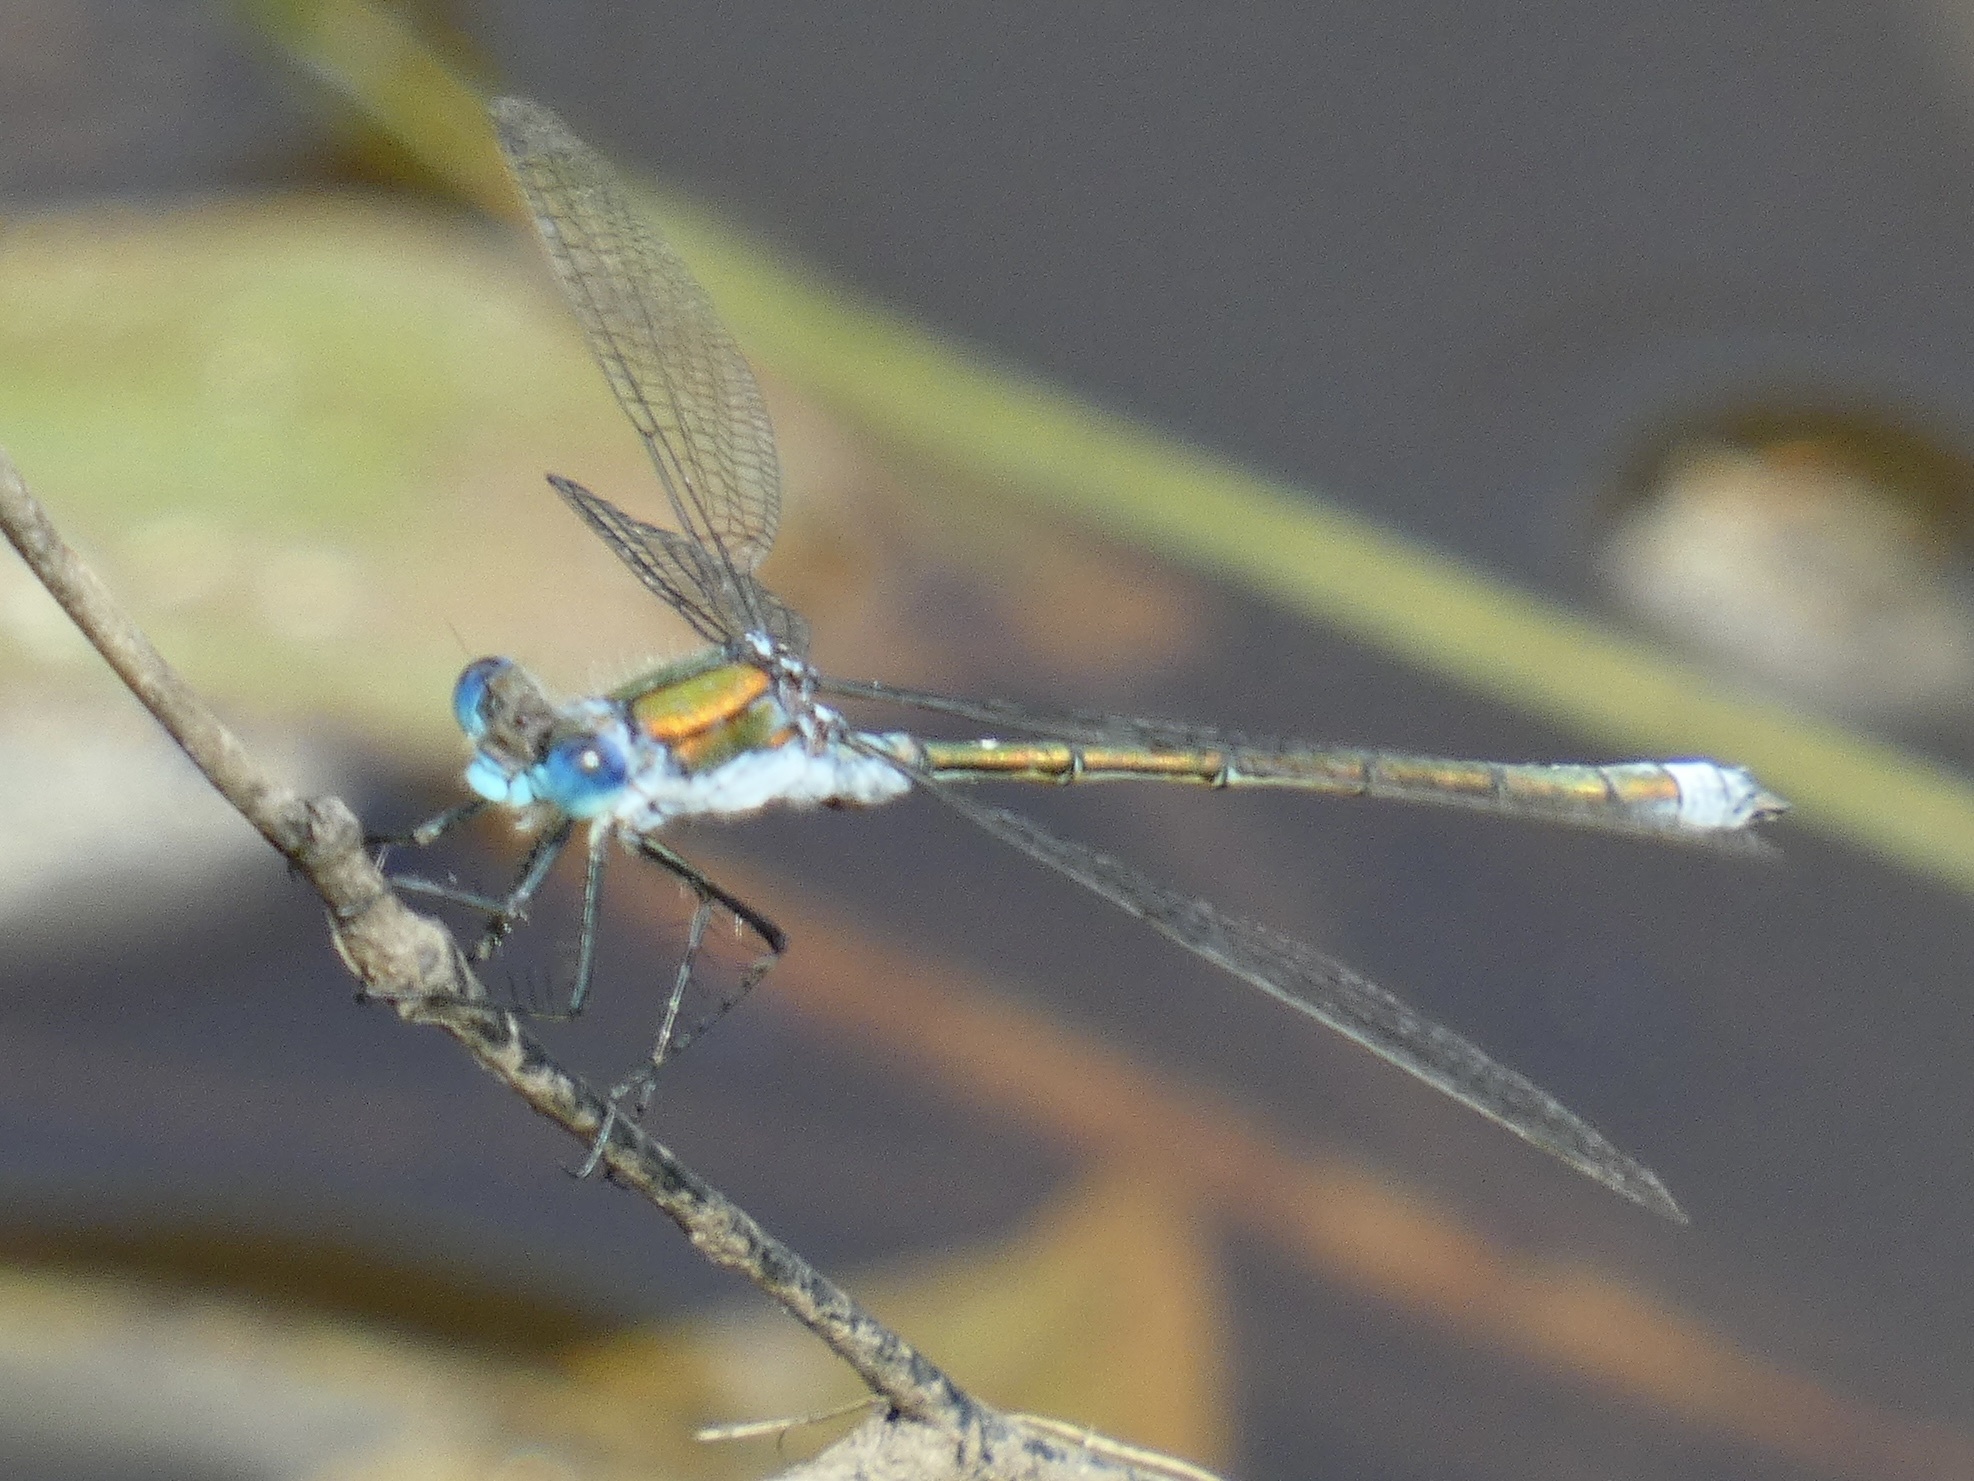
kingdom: Animalia
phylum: Arthropoda
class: Insecta
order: Odonata
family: Lestidae
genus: Lestes
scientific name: Lestes sponsa
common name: Common spreadwing
